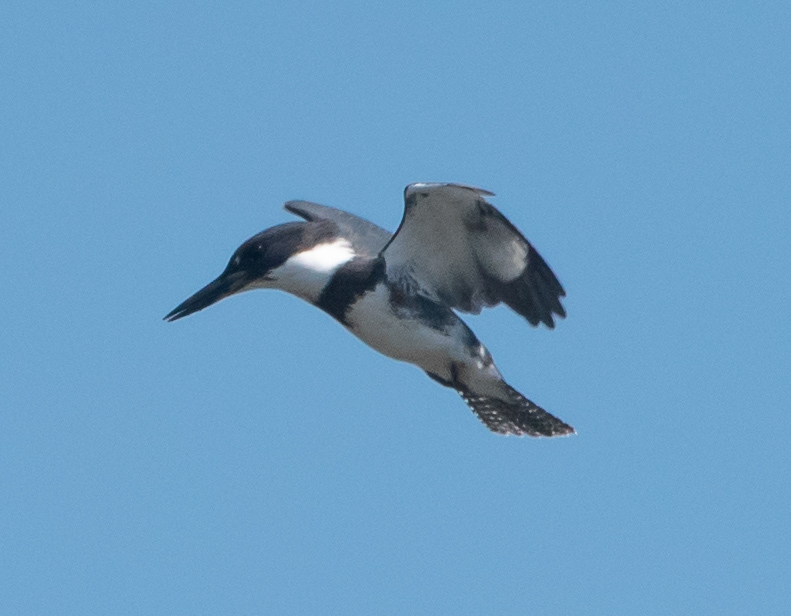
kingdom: Animalia
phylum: Chordata
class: Aves
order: Coraciiformes
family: Alcedinidae
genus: Megaceryle
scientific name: Megaceryle alcyon
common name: Belted kingfisher
